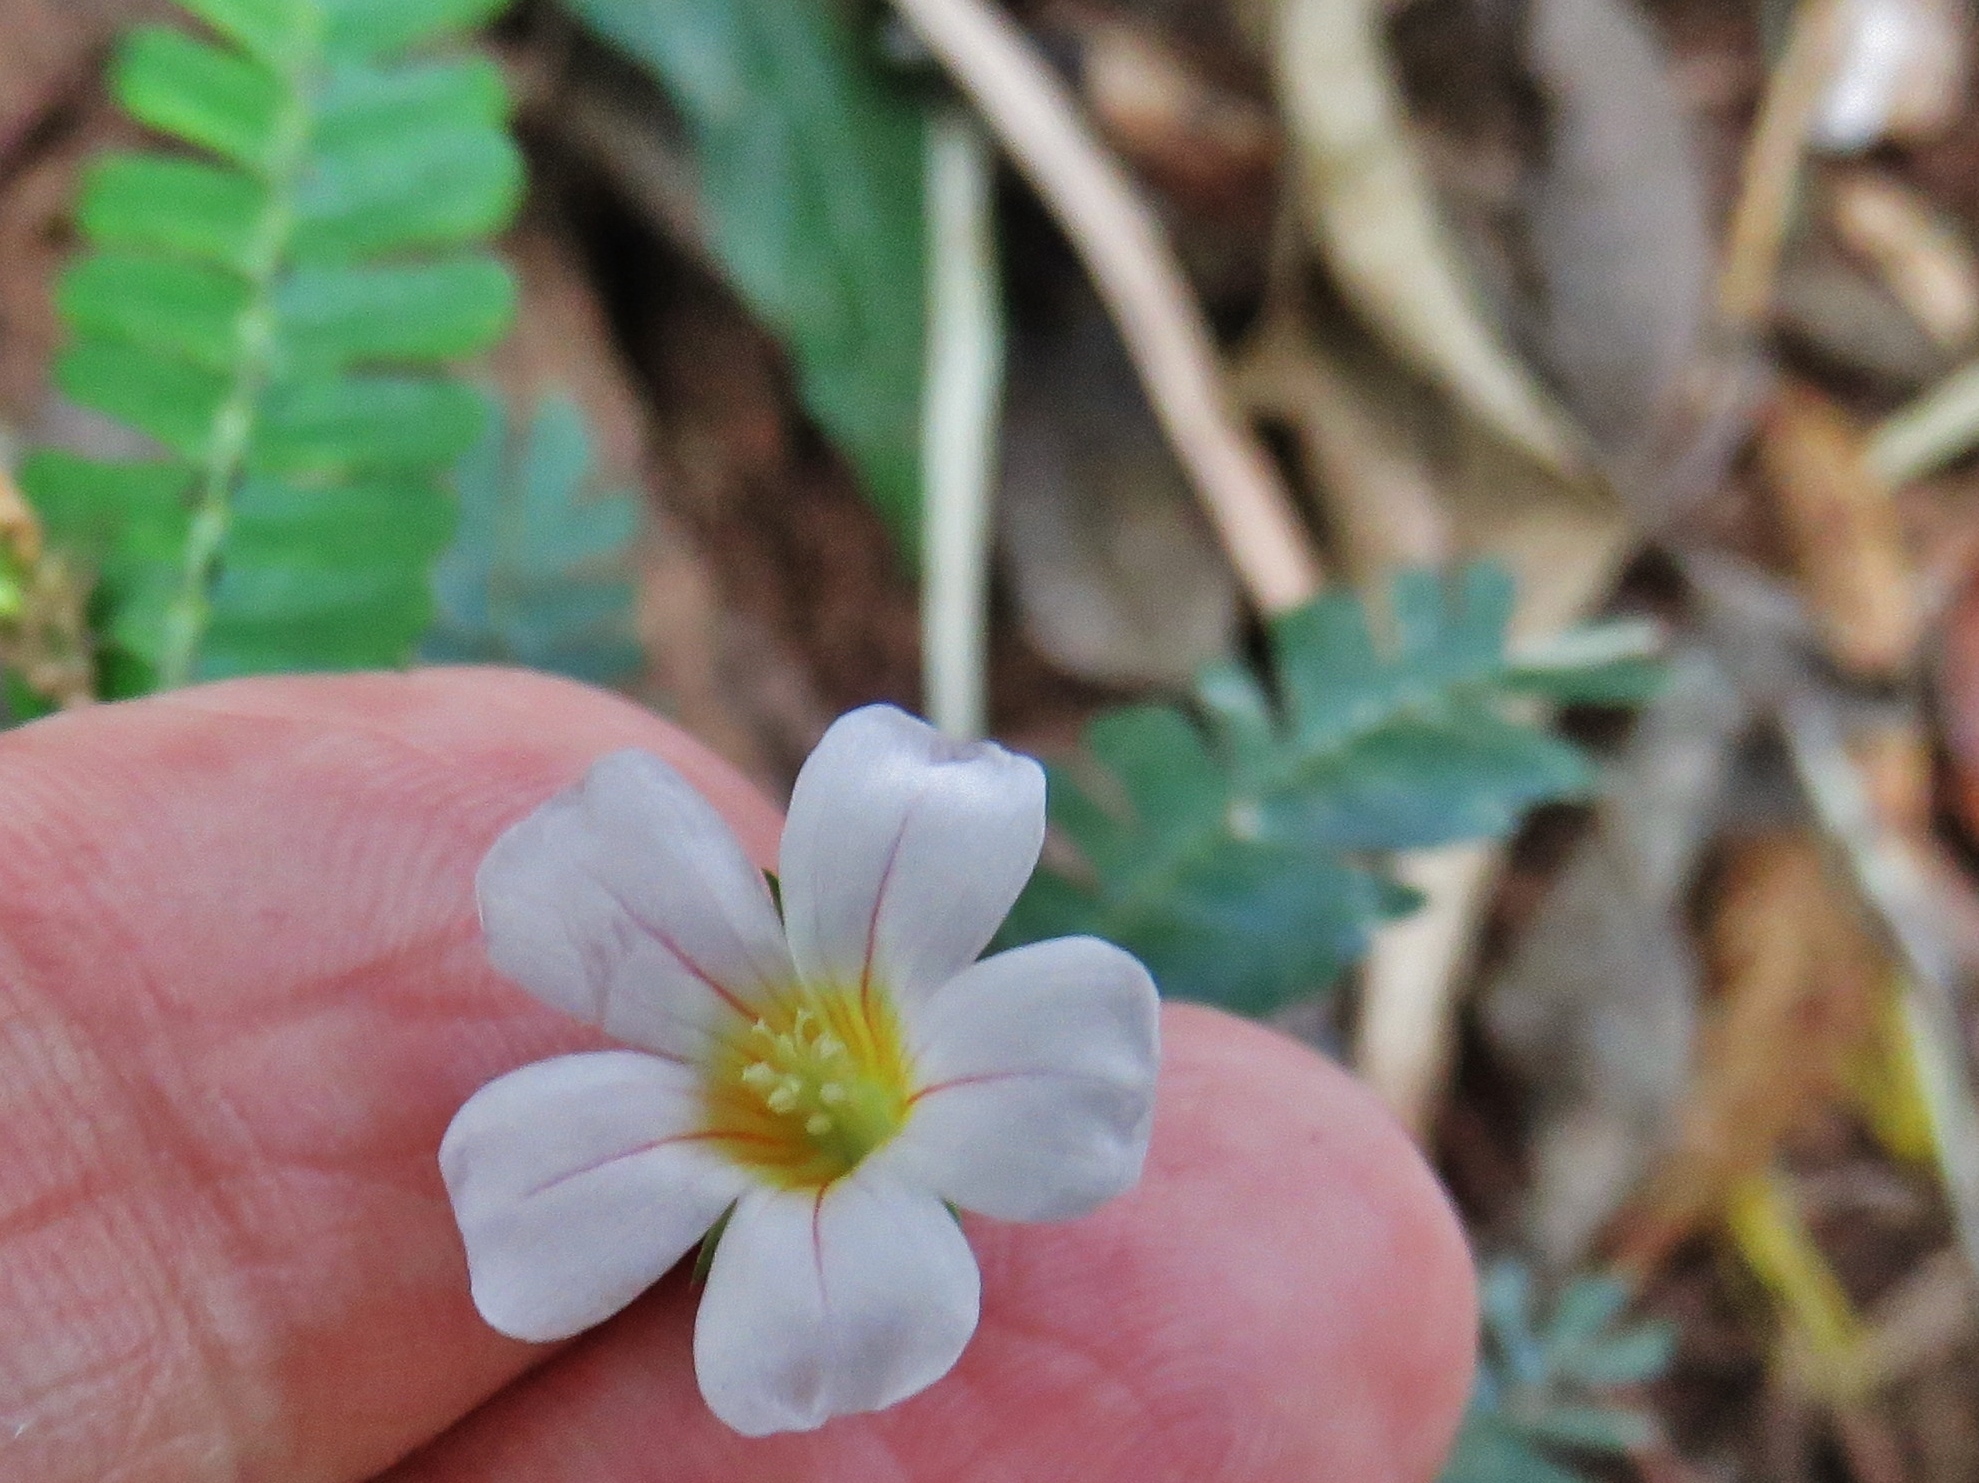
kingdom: Plantae
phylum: Tracheophyta
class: Magnoliopsida
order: Oxalidales
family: Oxalidaceae
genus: Biophytum
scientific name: Biophytum dendroides
